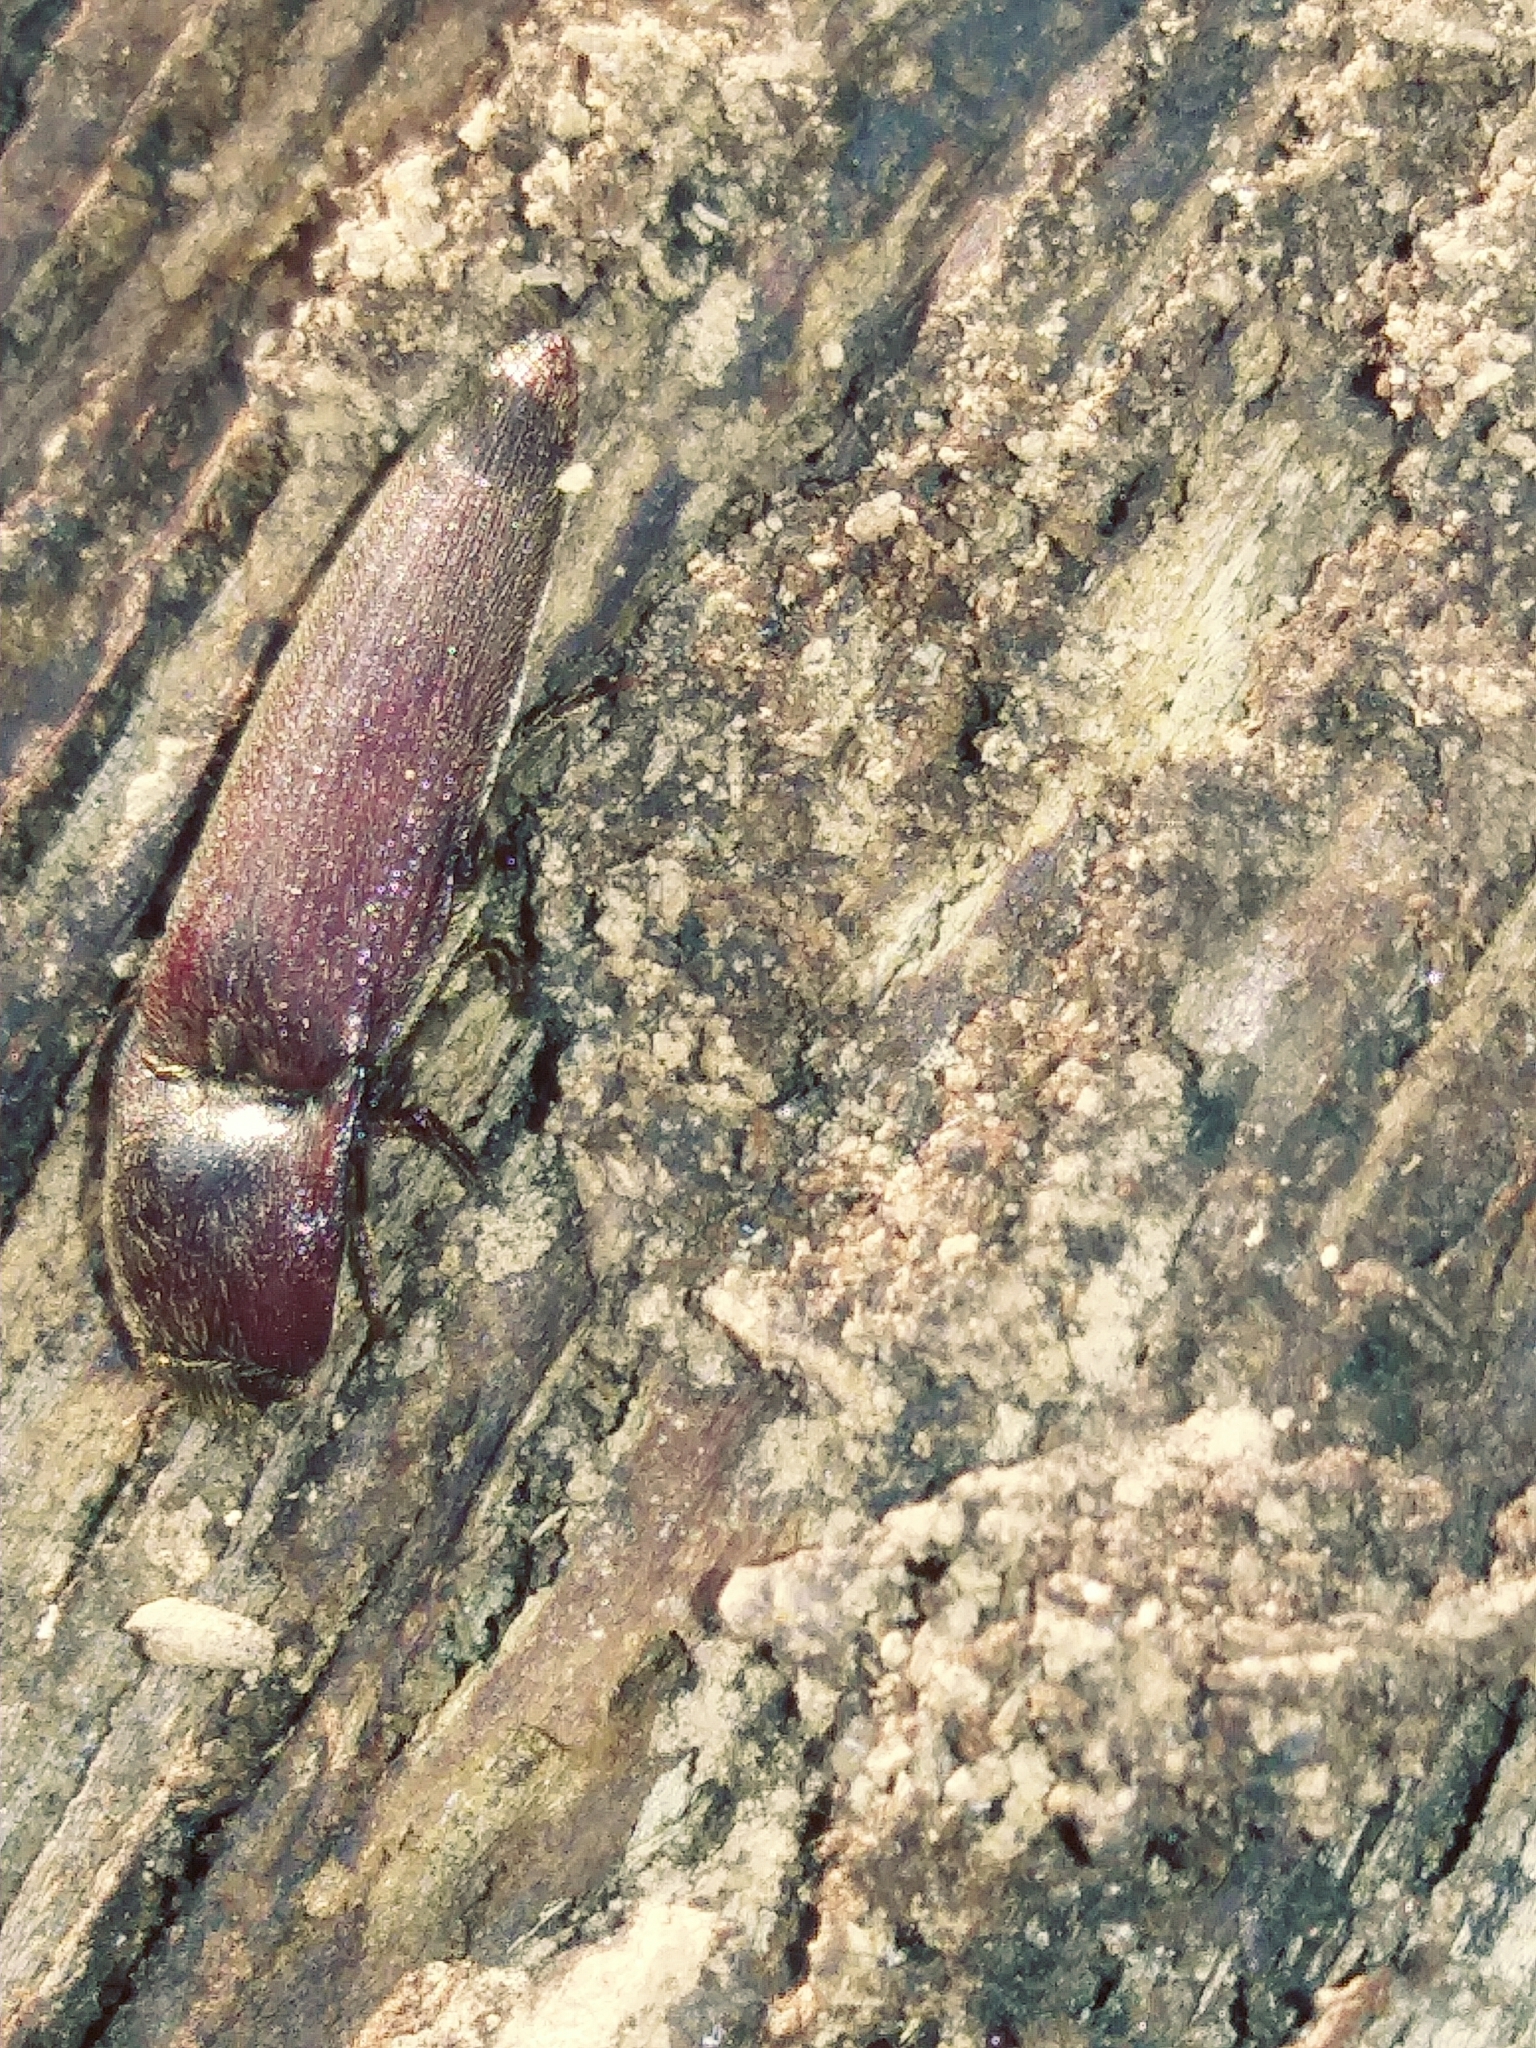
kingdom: Animalia
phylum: Arthropoda
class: Insecta
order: Coleoptera
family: Elateridae
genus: Melanotus
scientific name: Melanotus similis
